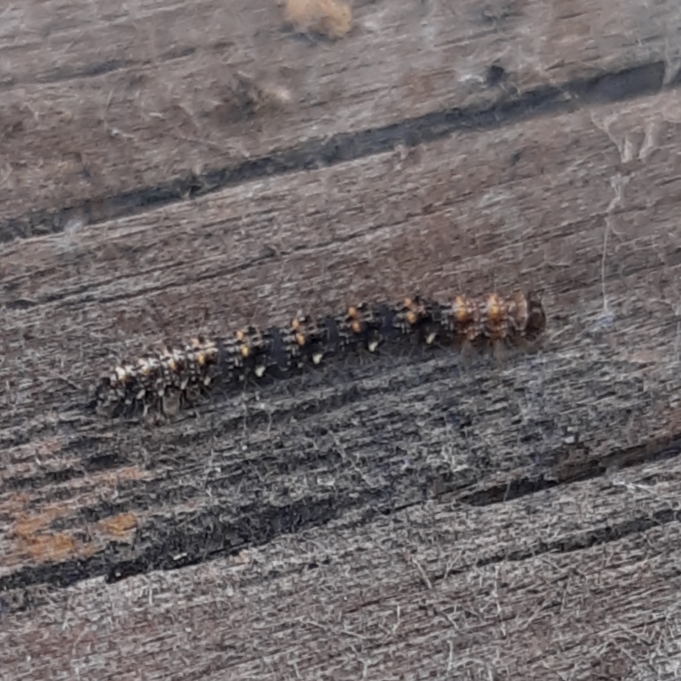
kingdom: Animalia
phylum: Arthropoda
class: Insecta
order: Lepidoptera
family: Erebidae
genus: Metalectra
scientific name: Metalectra discalis
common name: Common fungus moth
